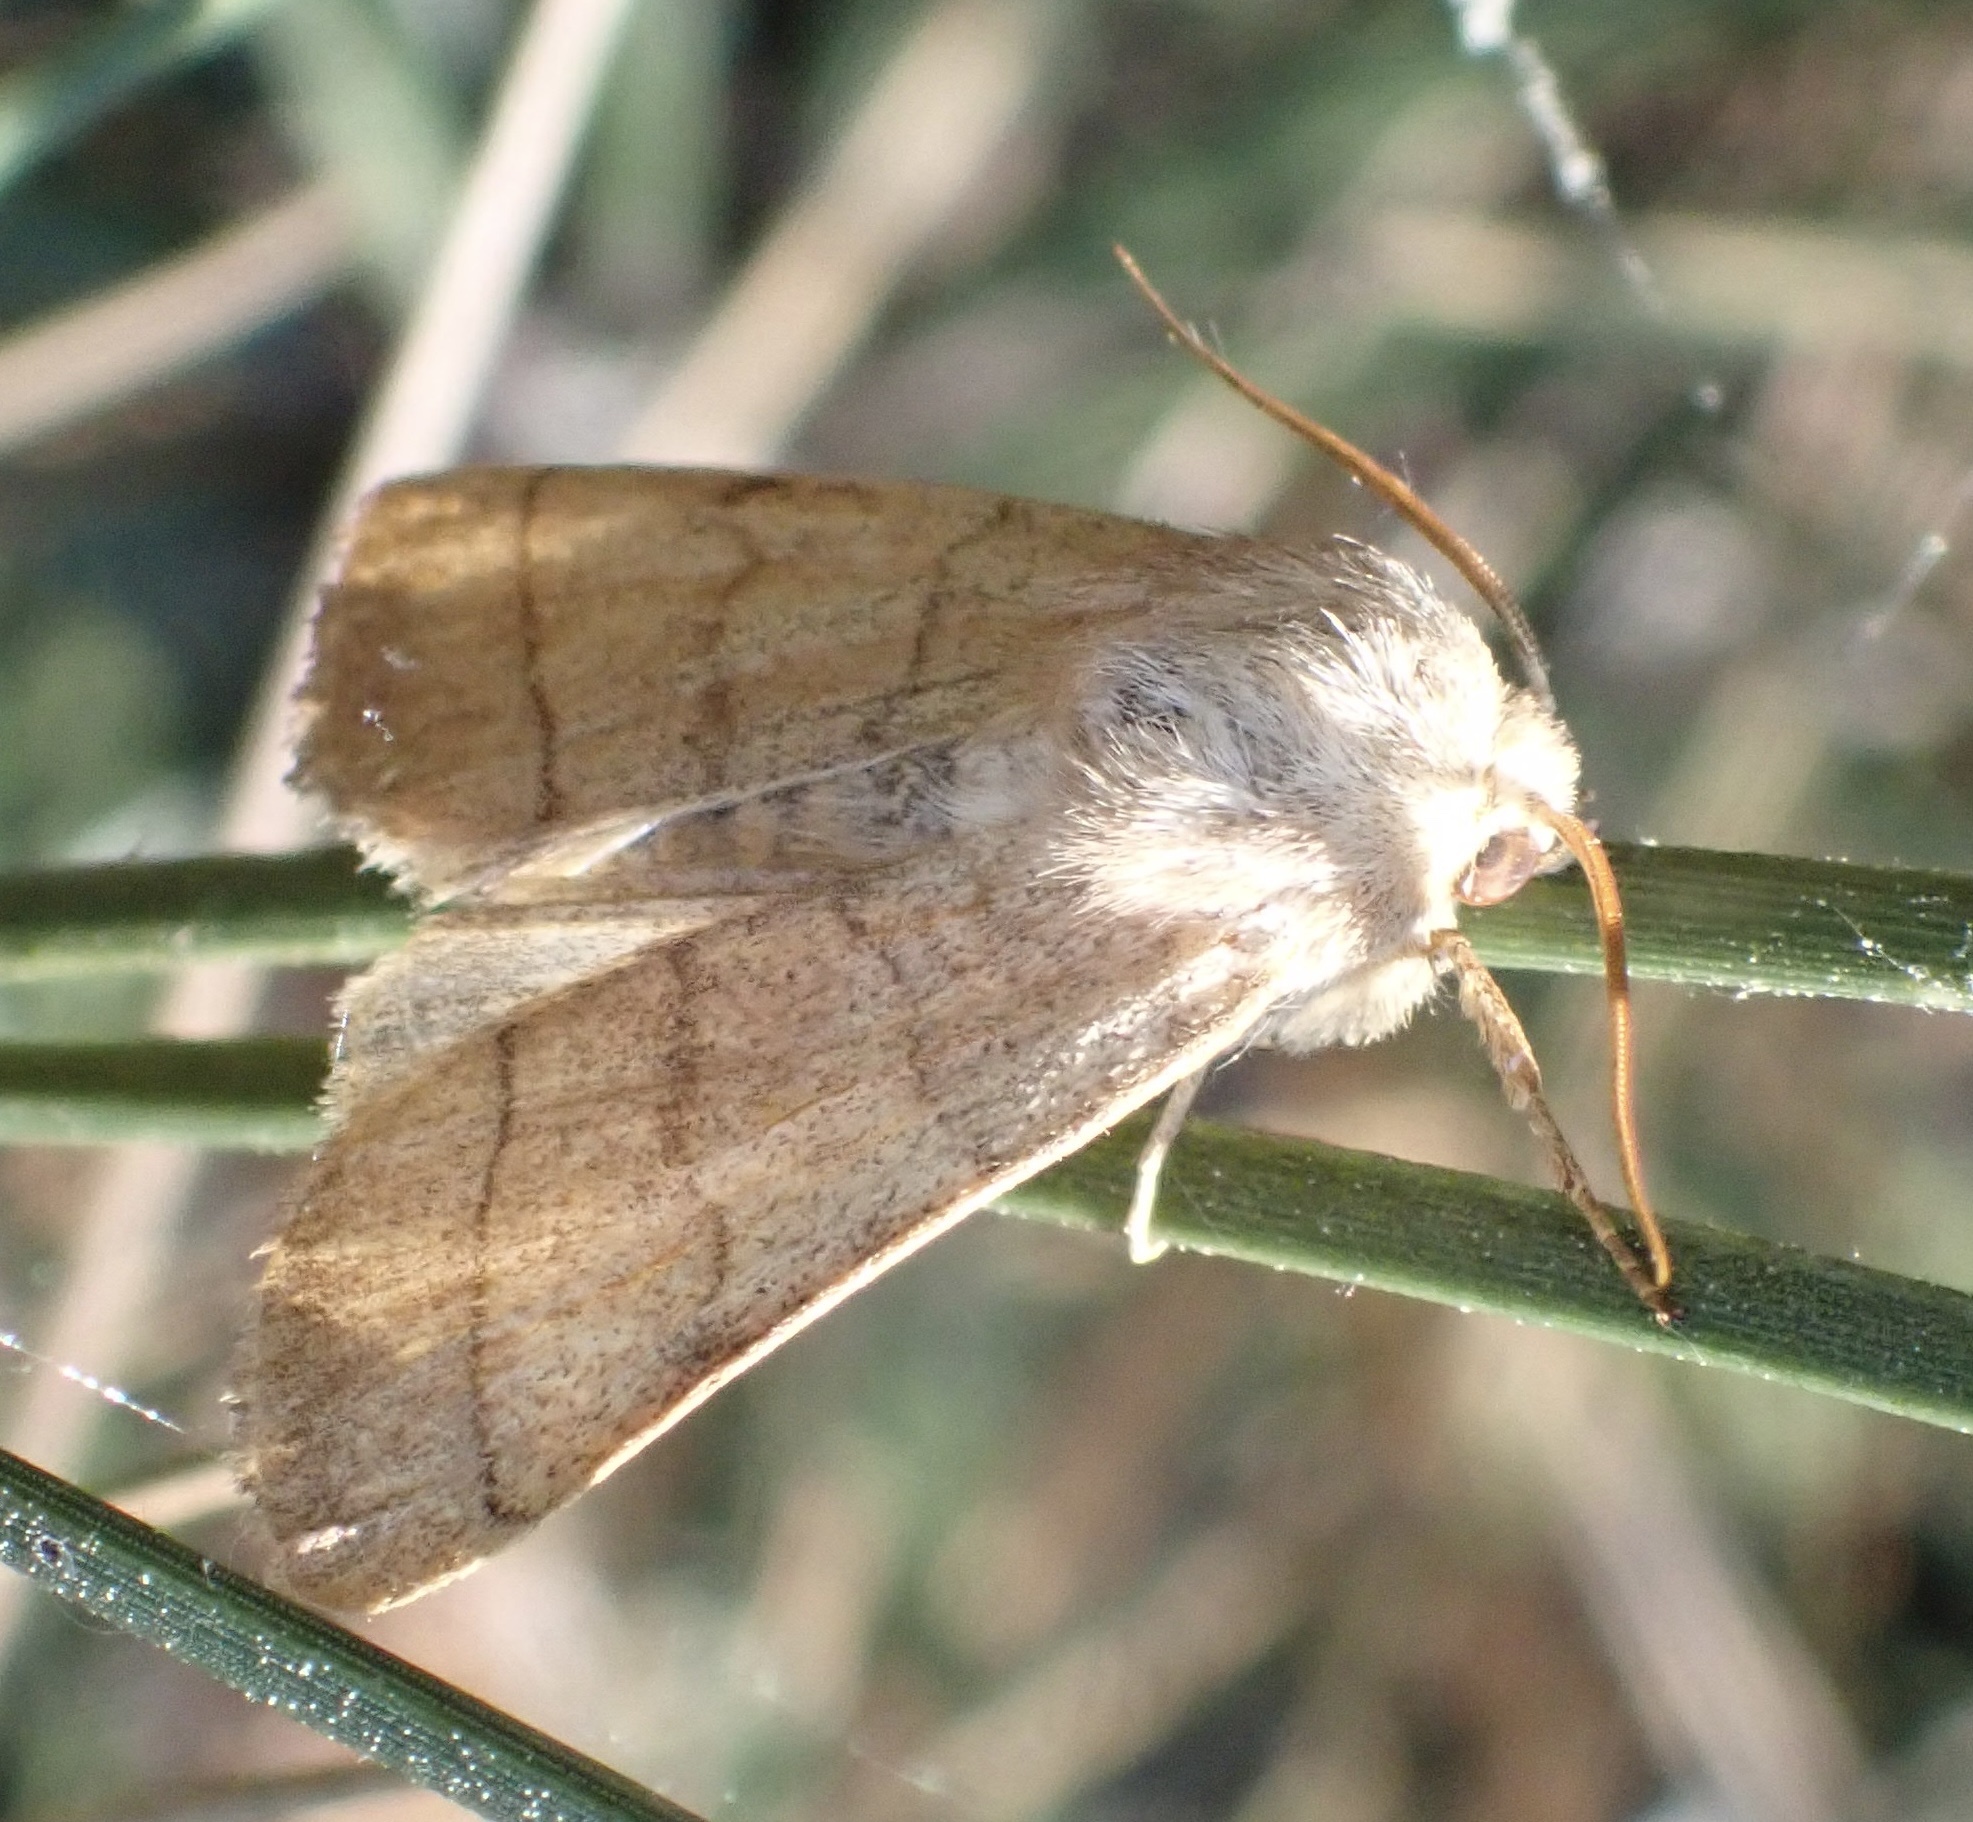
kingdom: Animalia
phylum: Arthropoda
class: Insecta
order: Lepidoptera
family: Noctuidae
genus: Charanyca
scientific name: Charanyca trigrammica
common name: Treble lines
